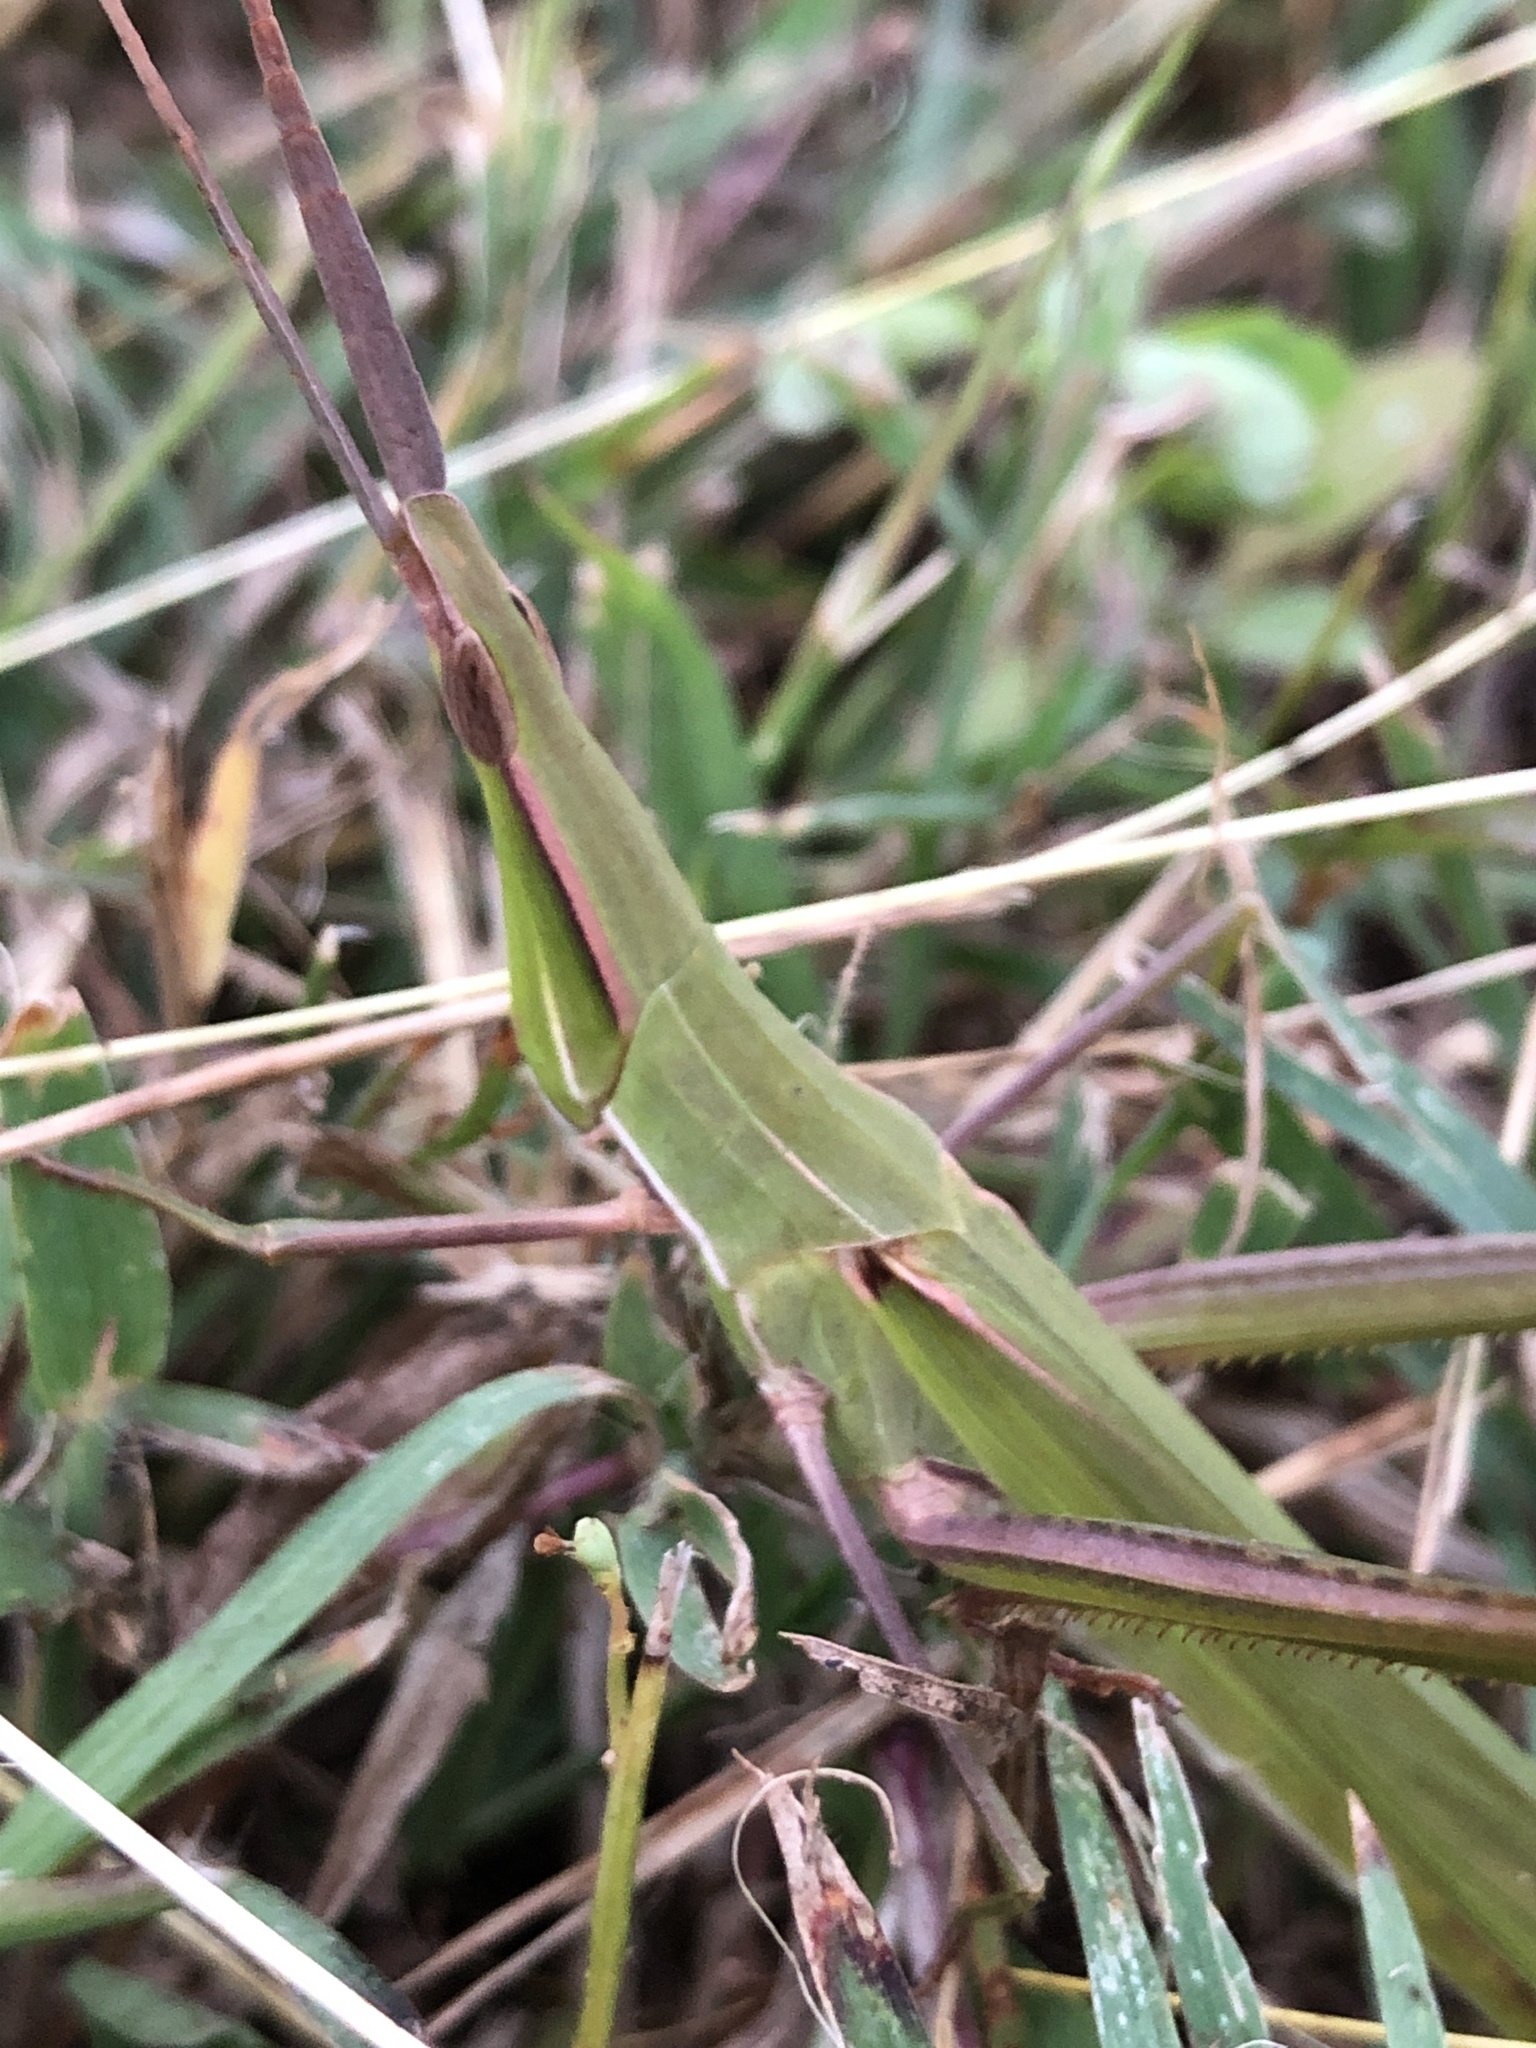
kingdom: Animalia
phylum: Arthropoda
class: Insecta
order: Orthoptera
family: Acrididae
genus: Acrida
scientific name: Acrida conica
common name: Giant green slantface
